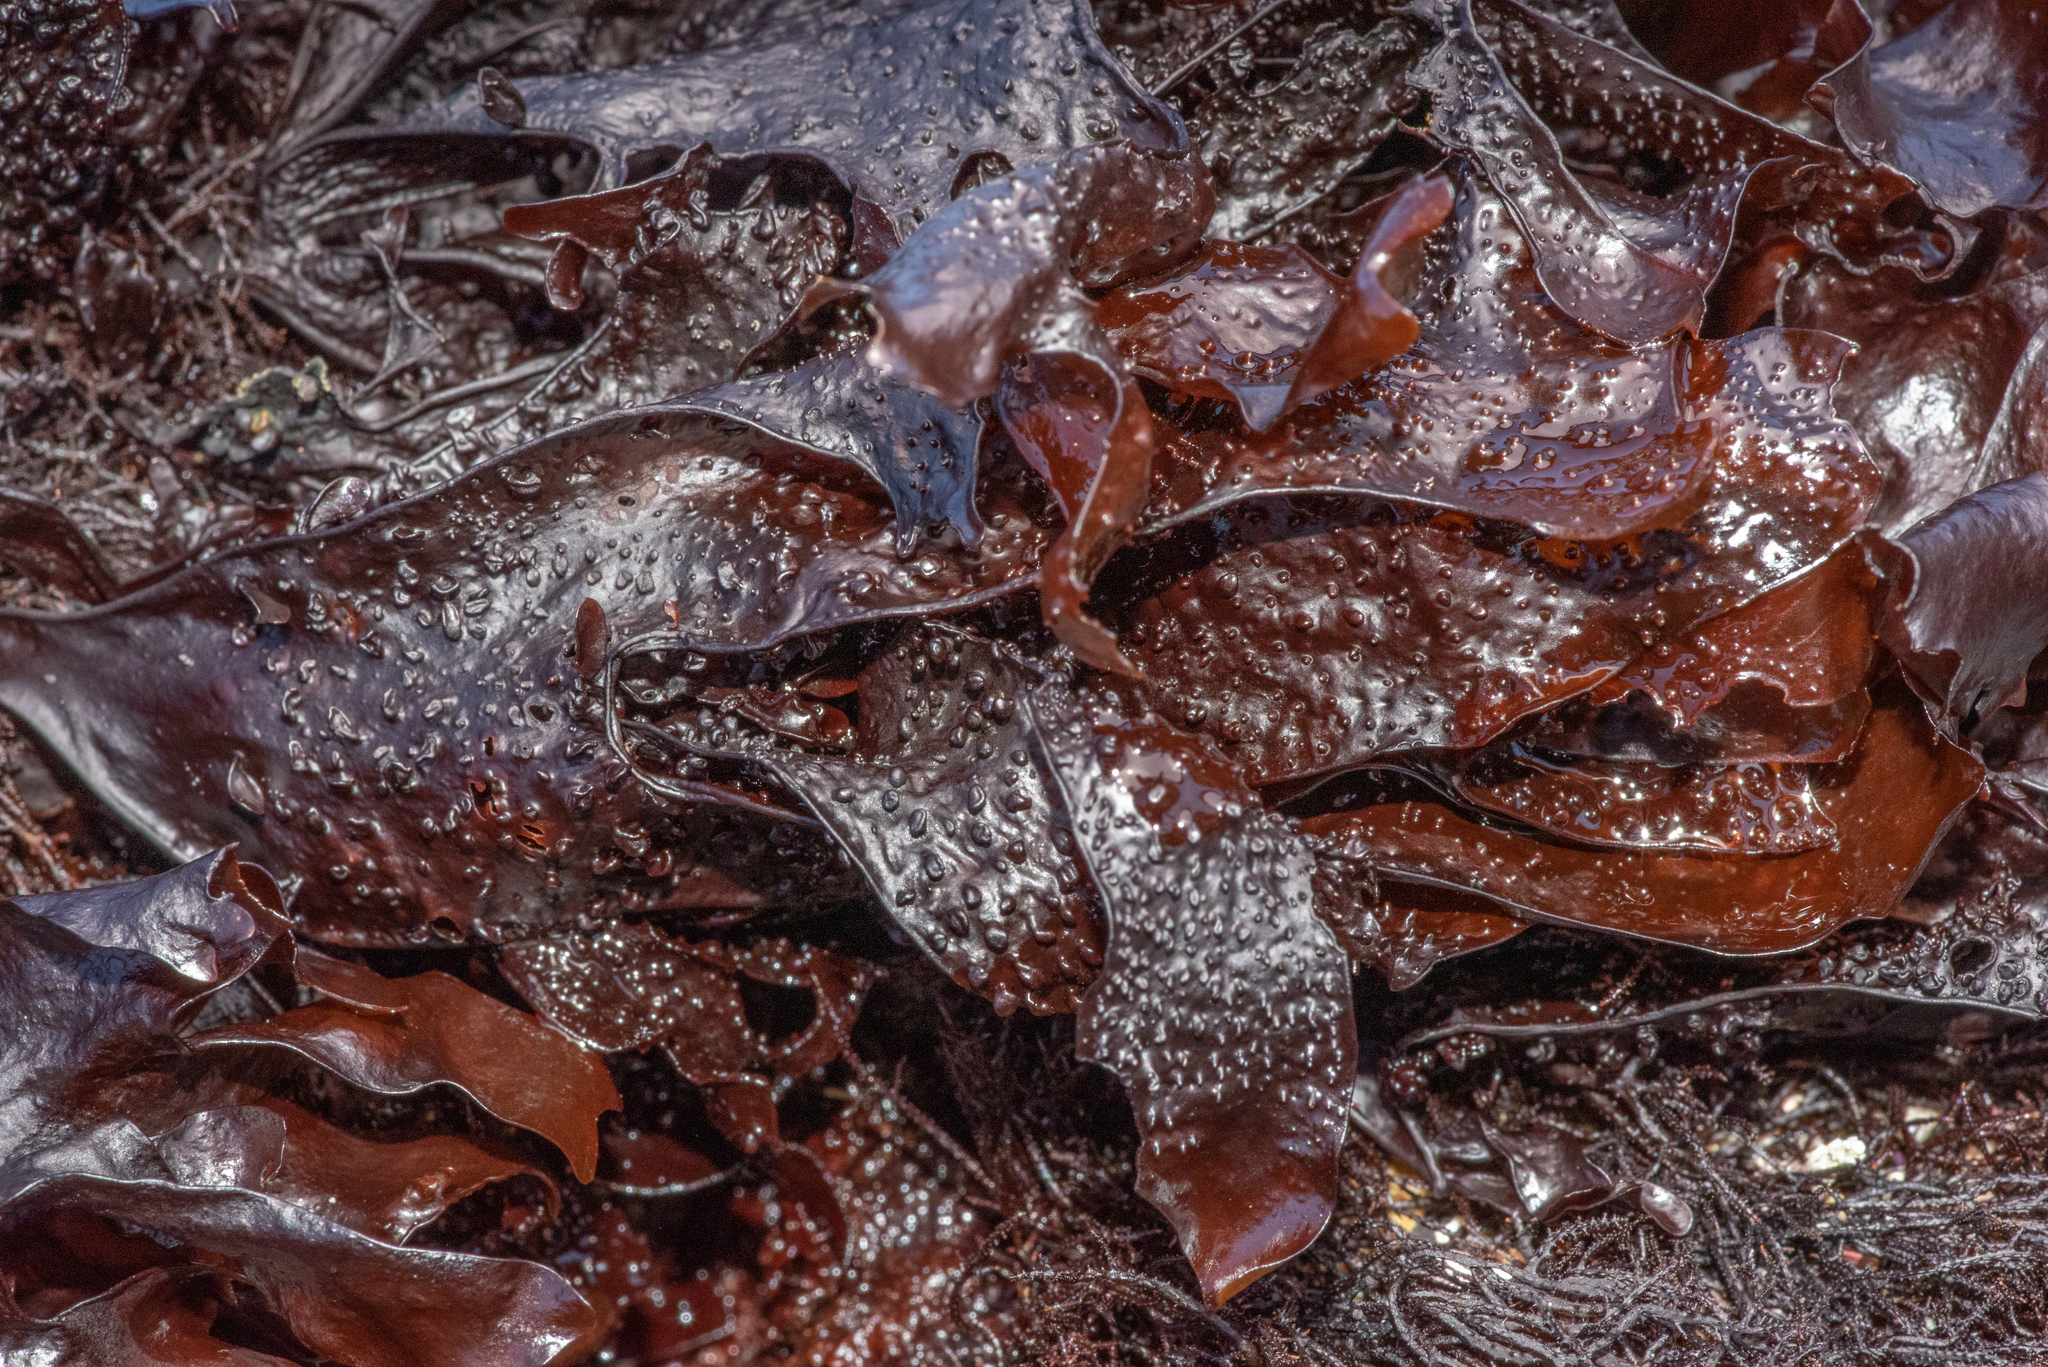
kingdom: Plantae
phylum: Rhodophyta
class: Florideophyceae
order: Gigartinales
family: Phyllophoraceae
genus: Mastocarpus
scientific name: Mastocarpus papillatus
